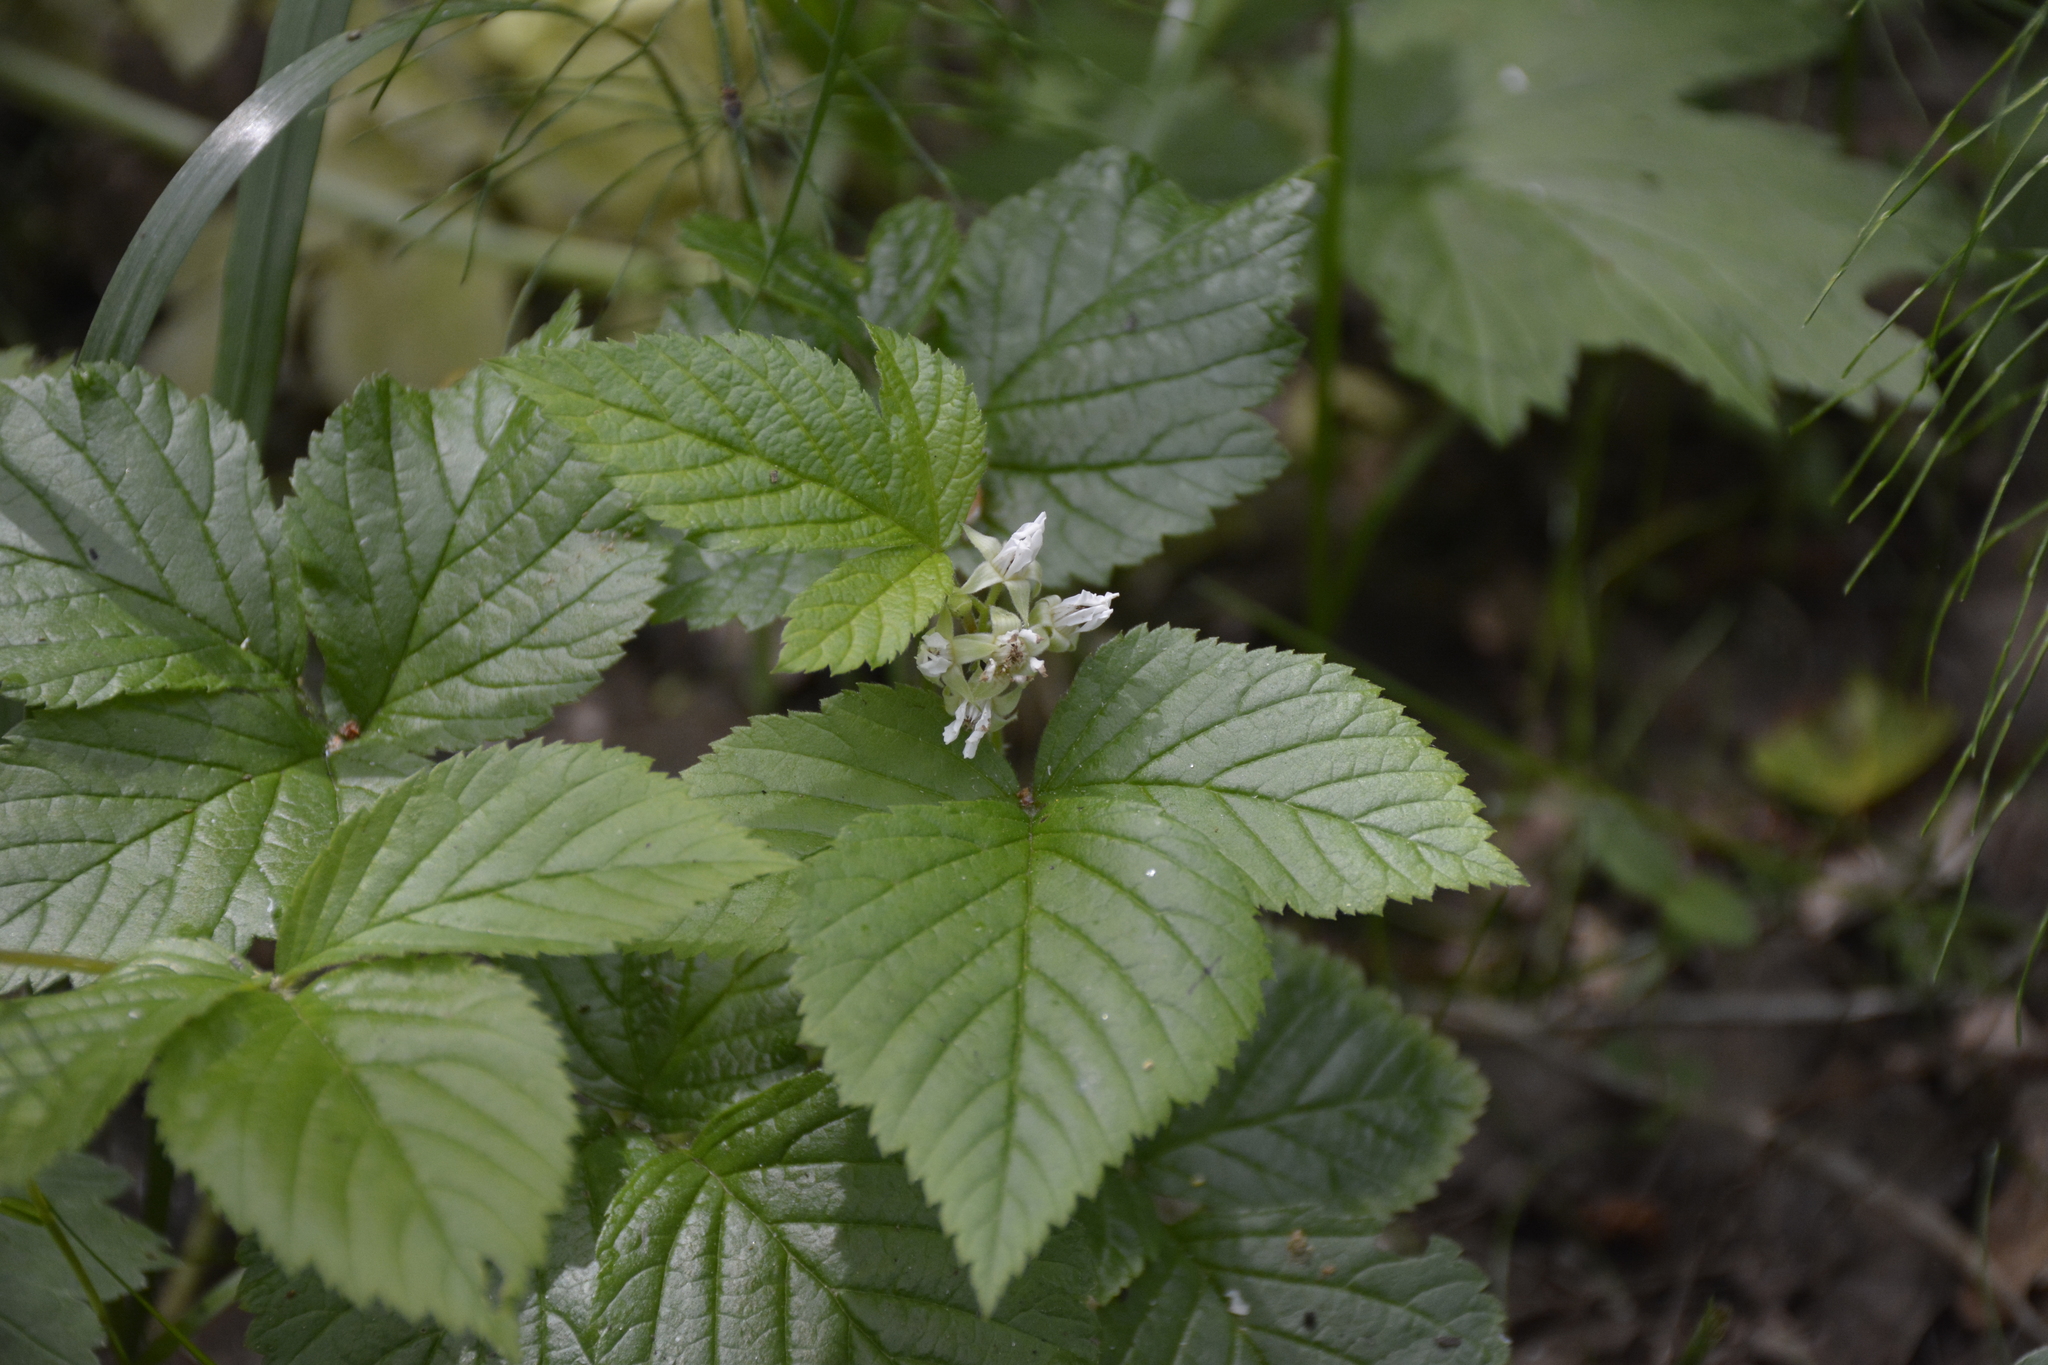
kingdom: Plantae
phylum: Tracheophyta
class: Magnoliopsida
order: Rosales
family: Rosaceae
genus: Rubus
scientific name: Rubus saxatilis
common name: Stone bramble
